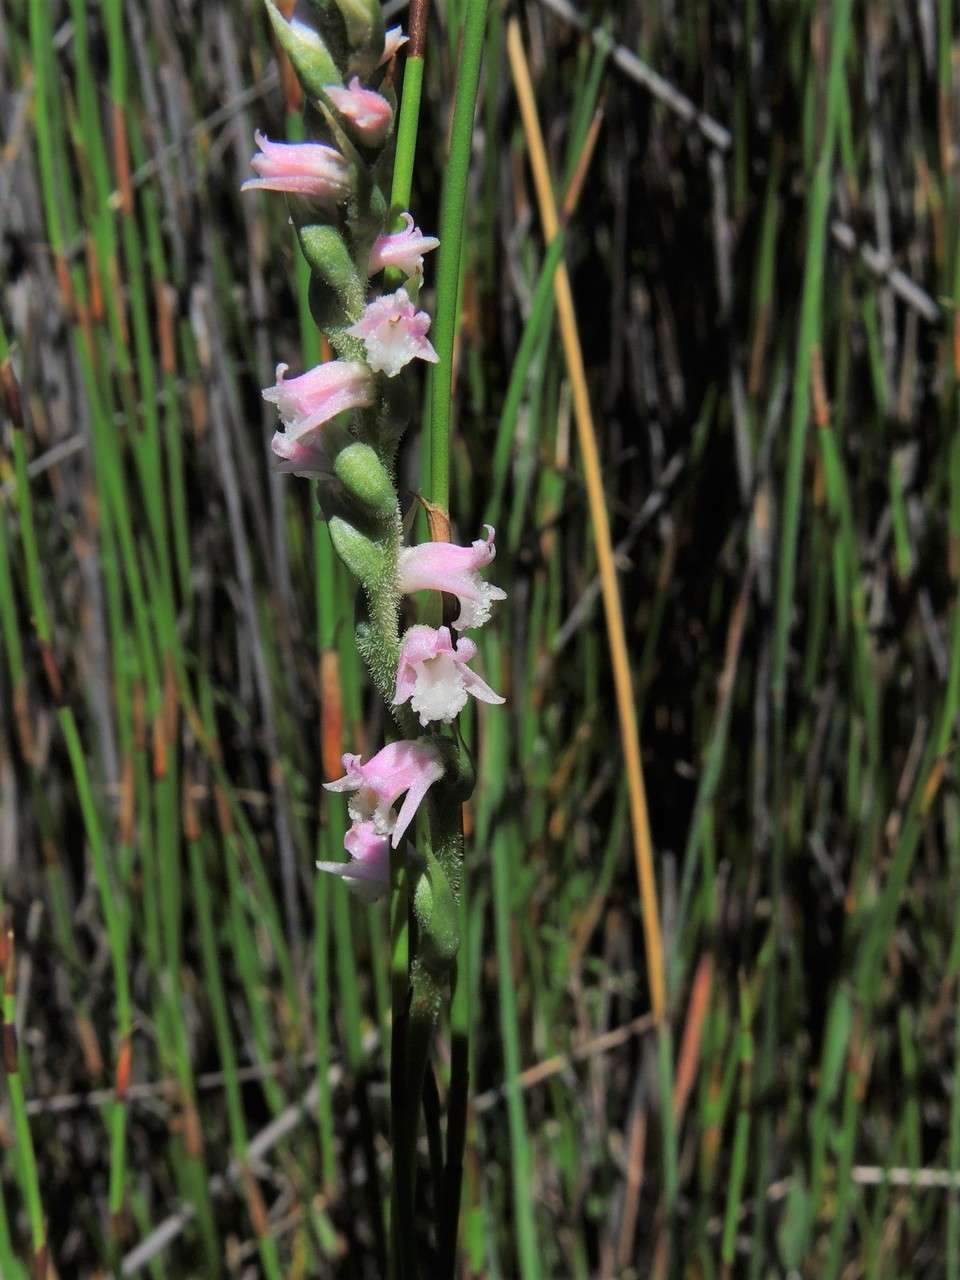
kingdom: Plantae
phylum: Tracheophyta
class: Liliopsida
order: Asparagales
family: Orchidaceae
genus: Spiranthes
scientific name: Spiranthes australis
